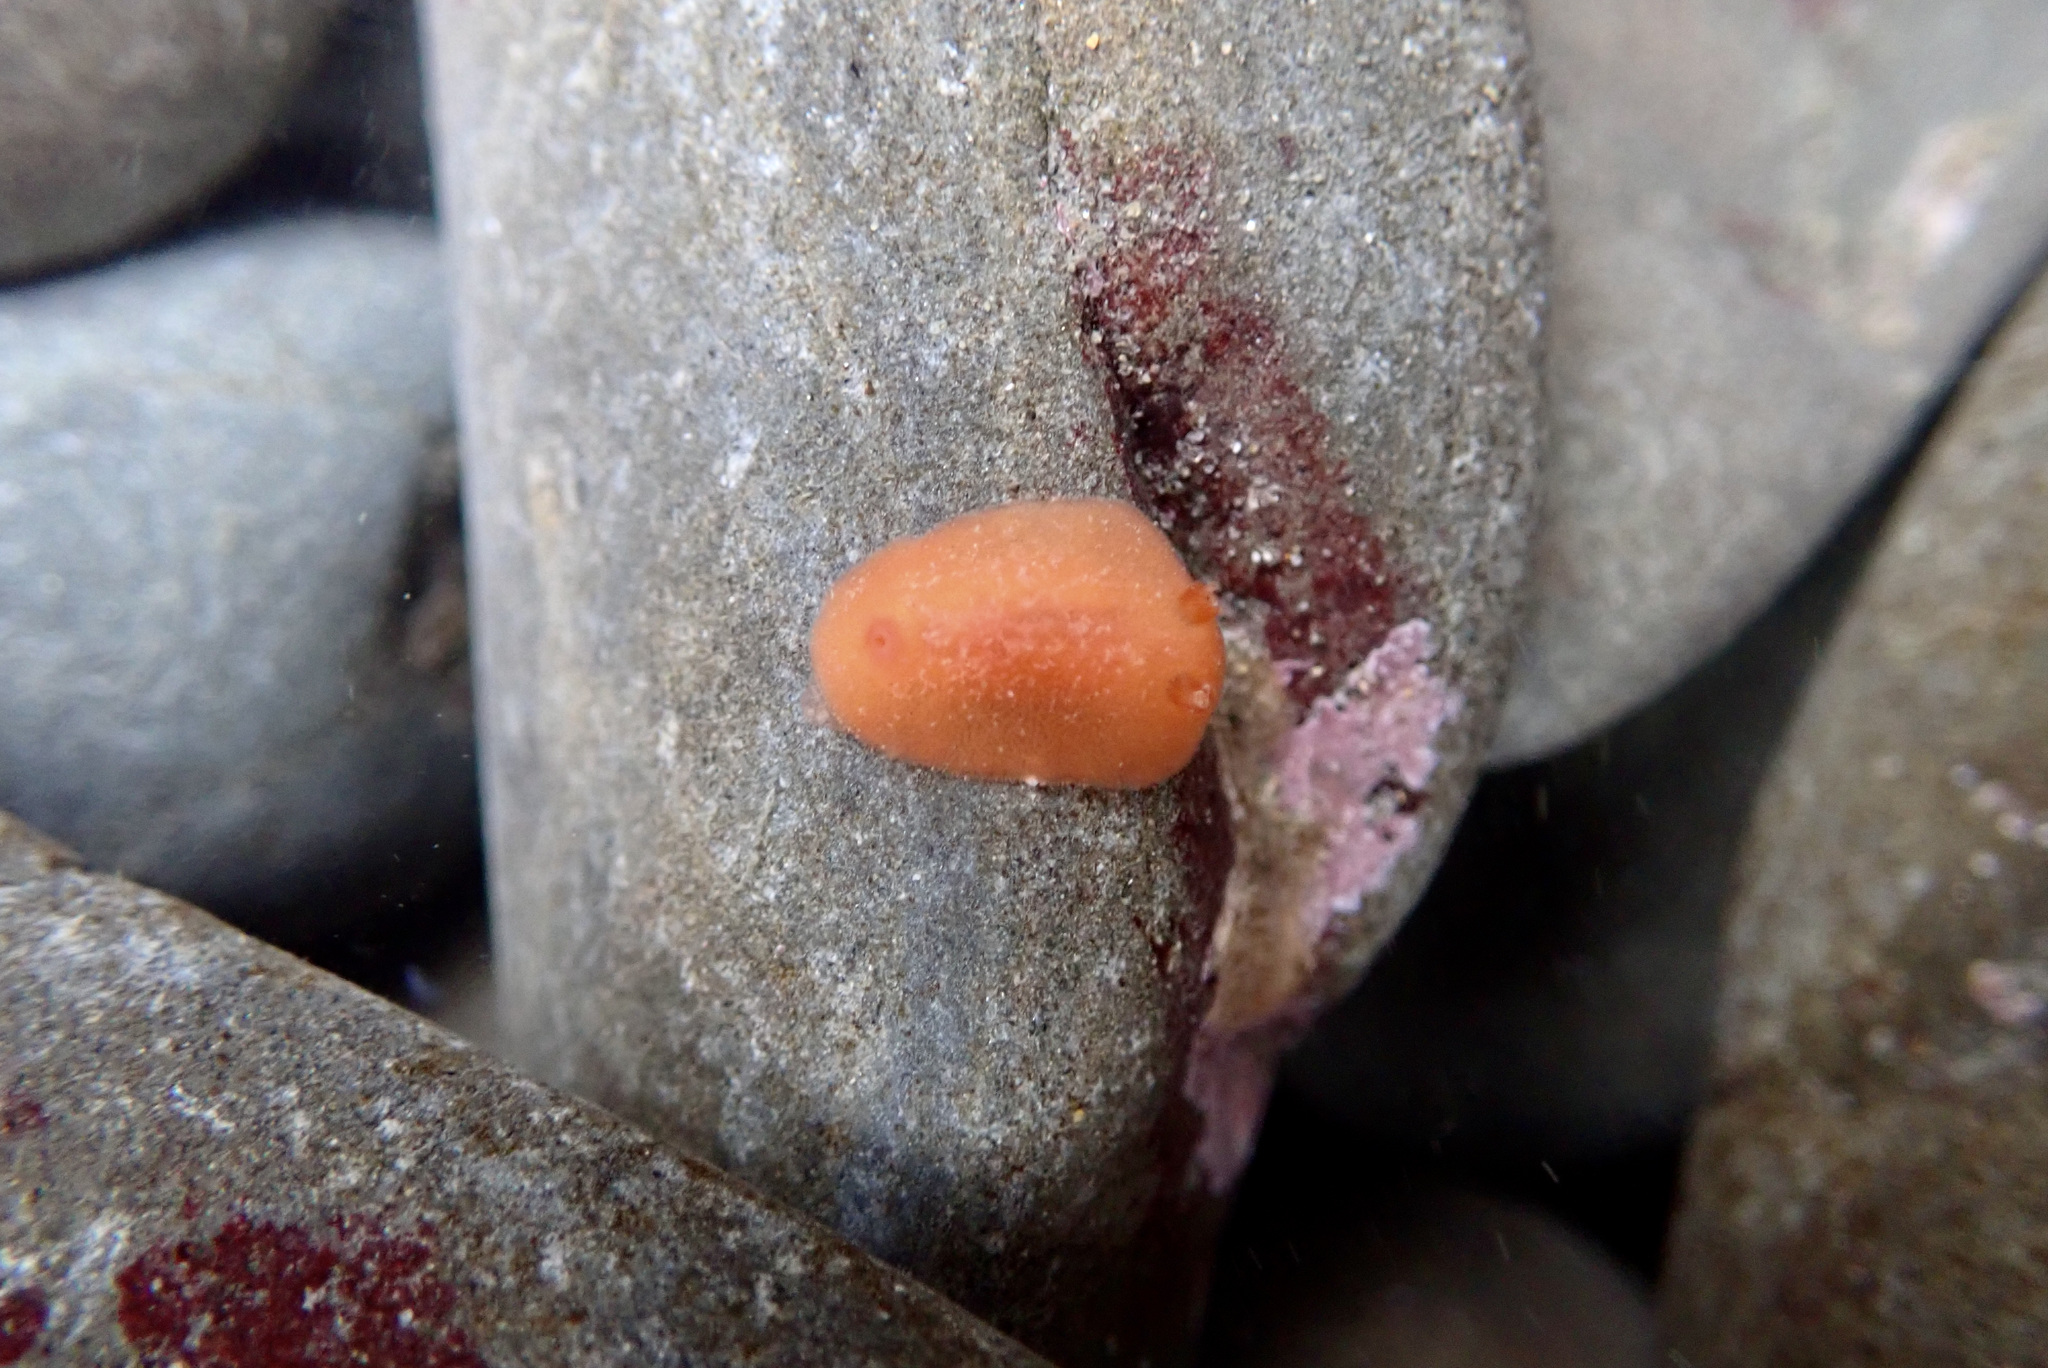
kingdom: Animalia
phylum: Mollusca
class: Gastropoda
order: Nudibranchia
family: Discodorididae
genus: Rostanga
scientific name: Rostanga pulchra
